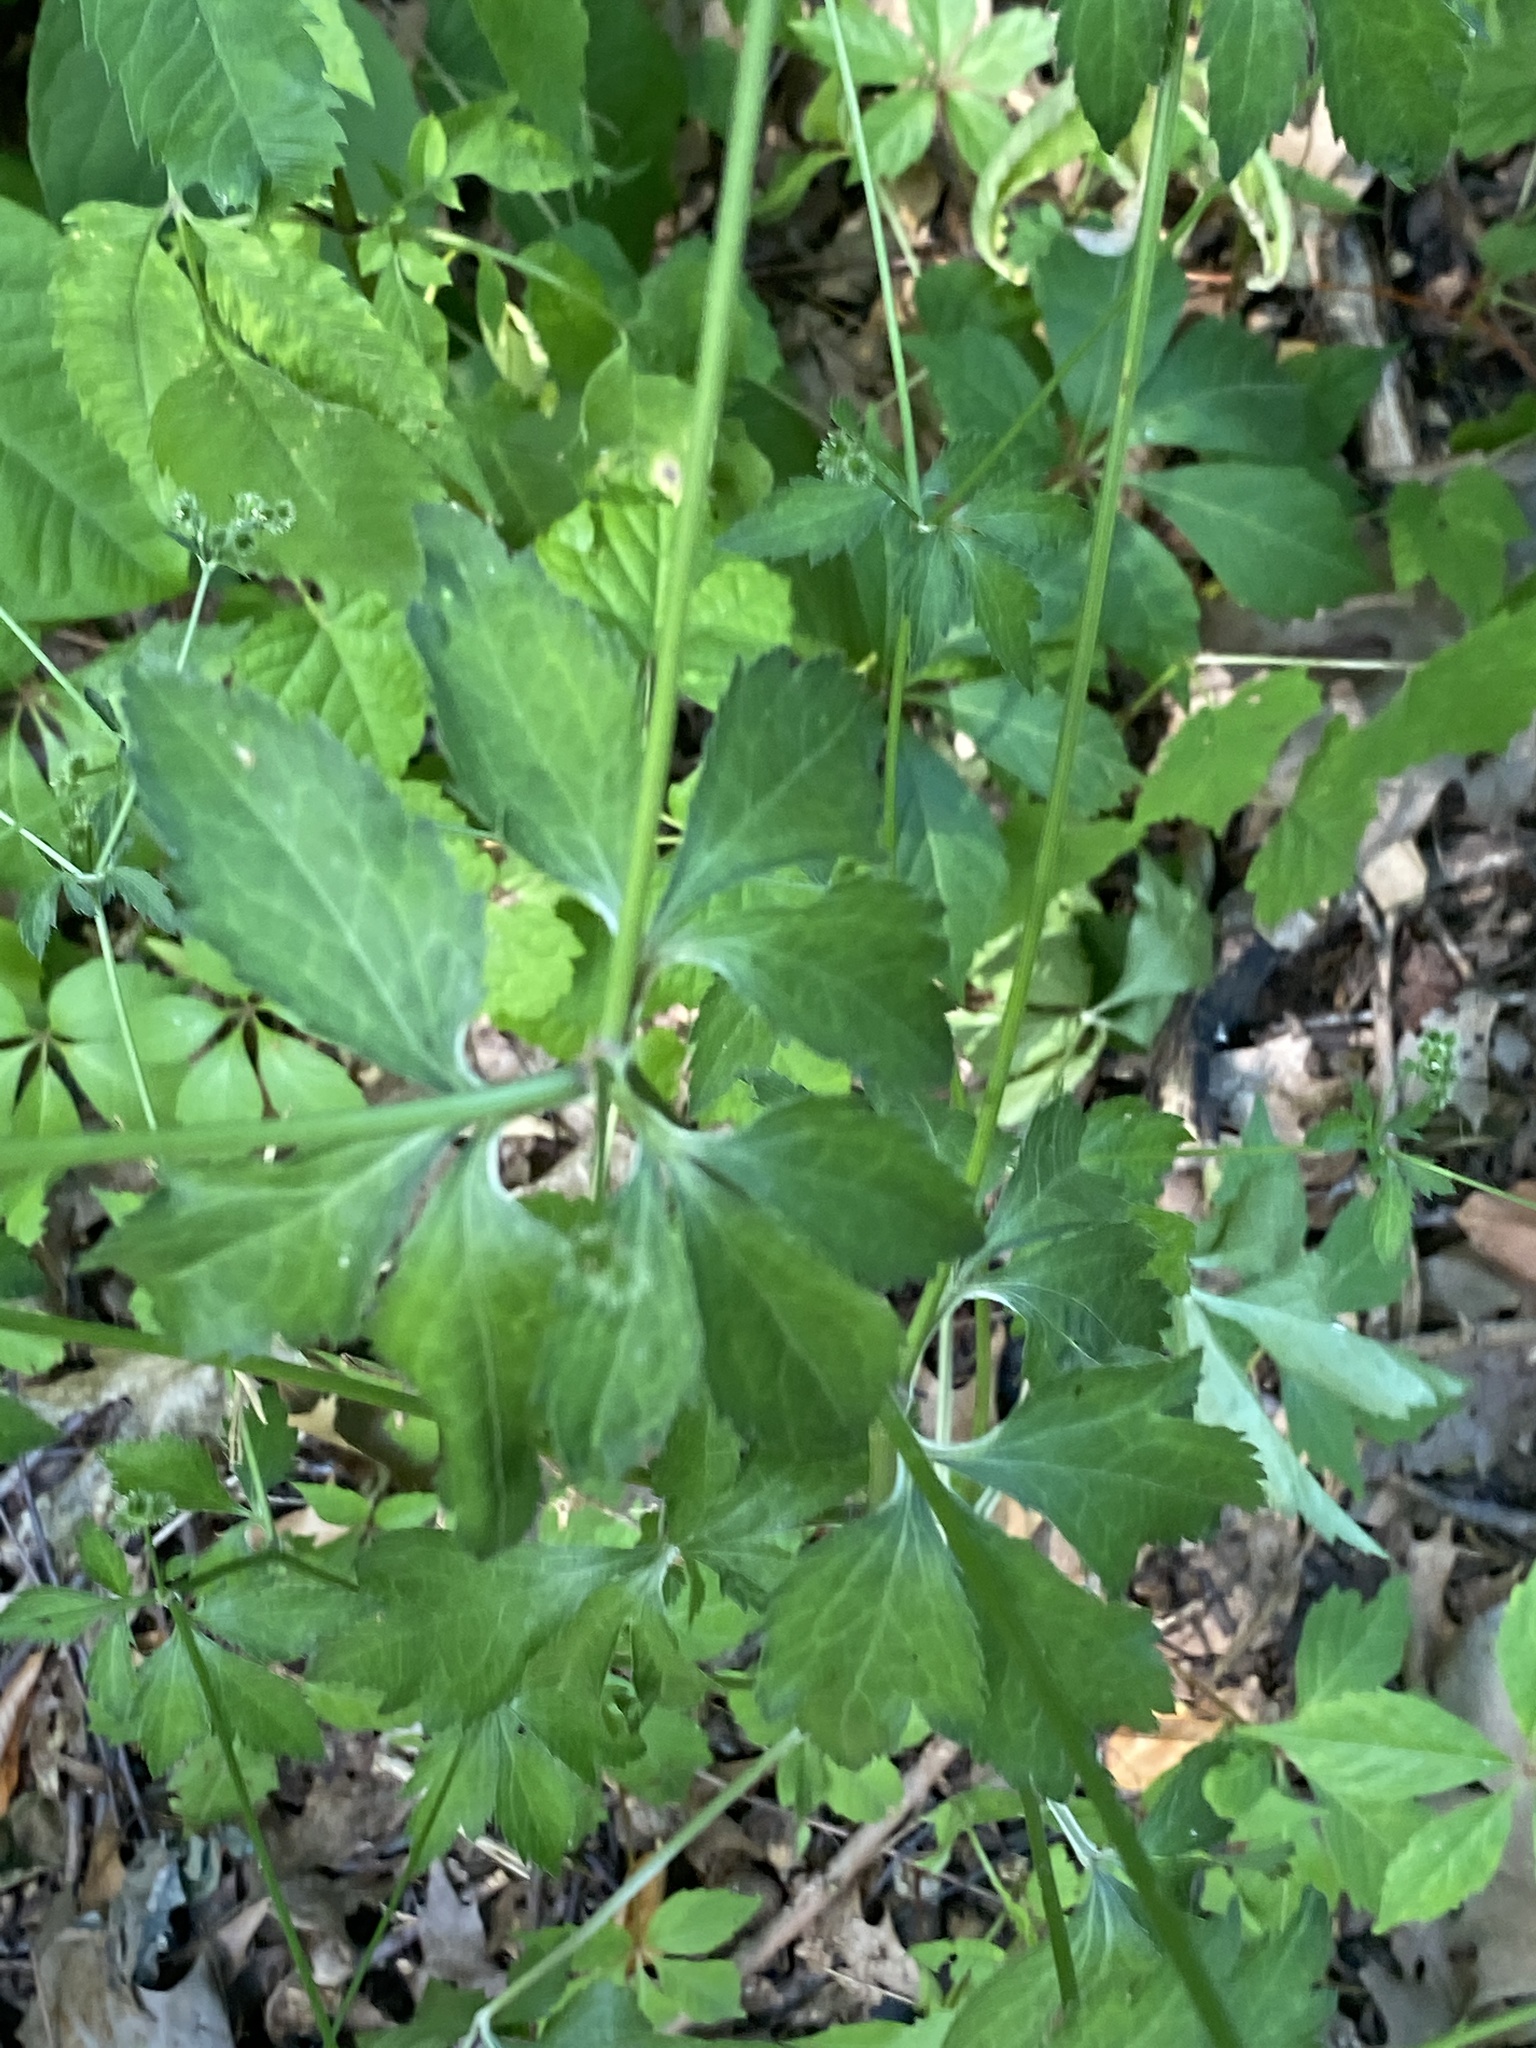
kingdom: Plantae
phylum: Tracheophyta
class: Magnoliopsida
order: Apiales
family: Apiaceae
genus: Sanicula
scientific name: Sanicula canadensis
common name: Canada sanicle
